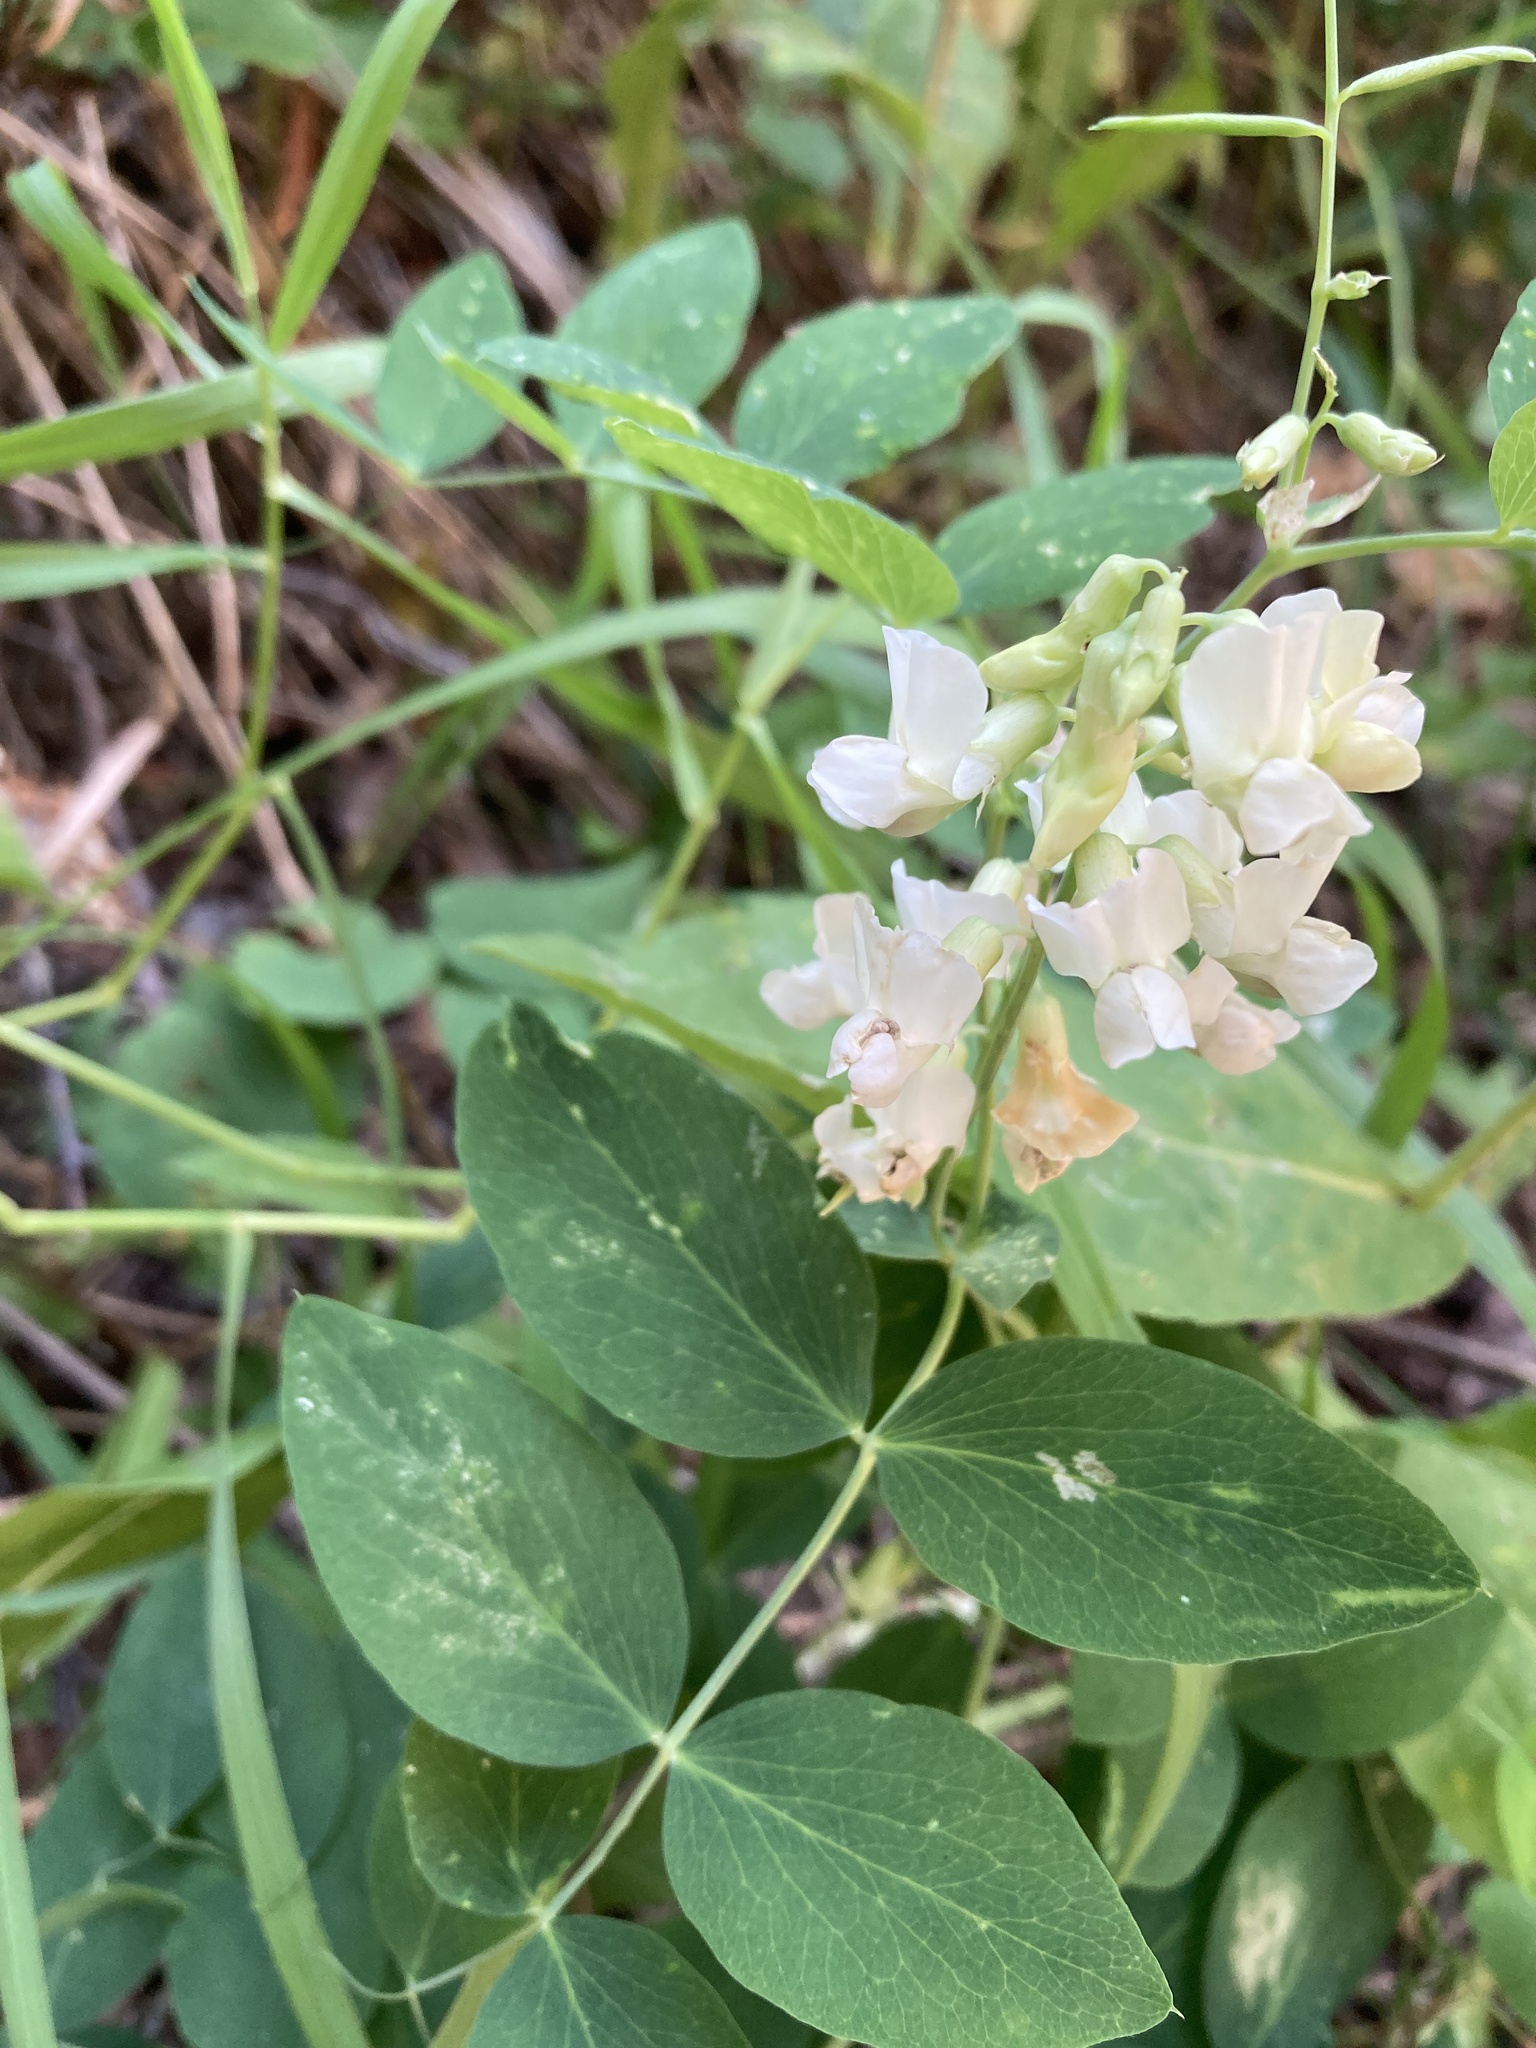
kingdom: Plantae
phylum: Tracheophyta
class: Magnoliopsida
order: Fabales
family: Fabaceae
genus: Lathyrus
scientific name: Lathyrus ochroleucus
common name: Pale vetchling
